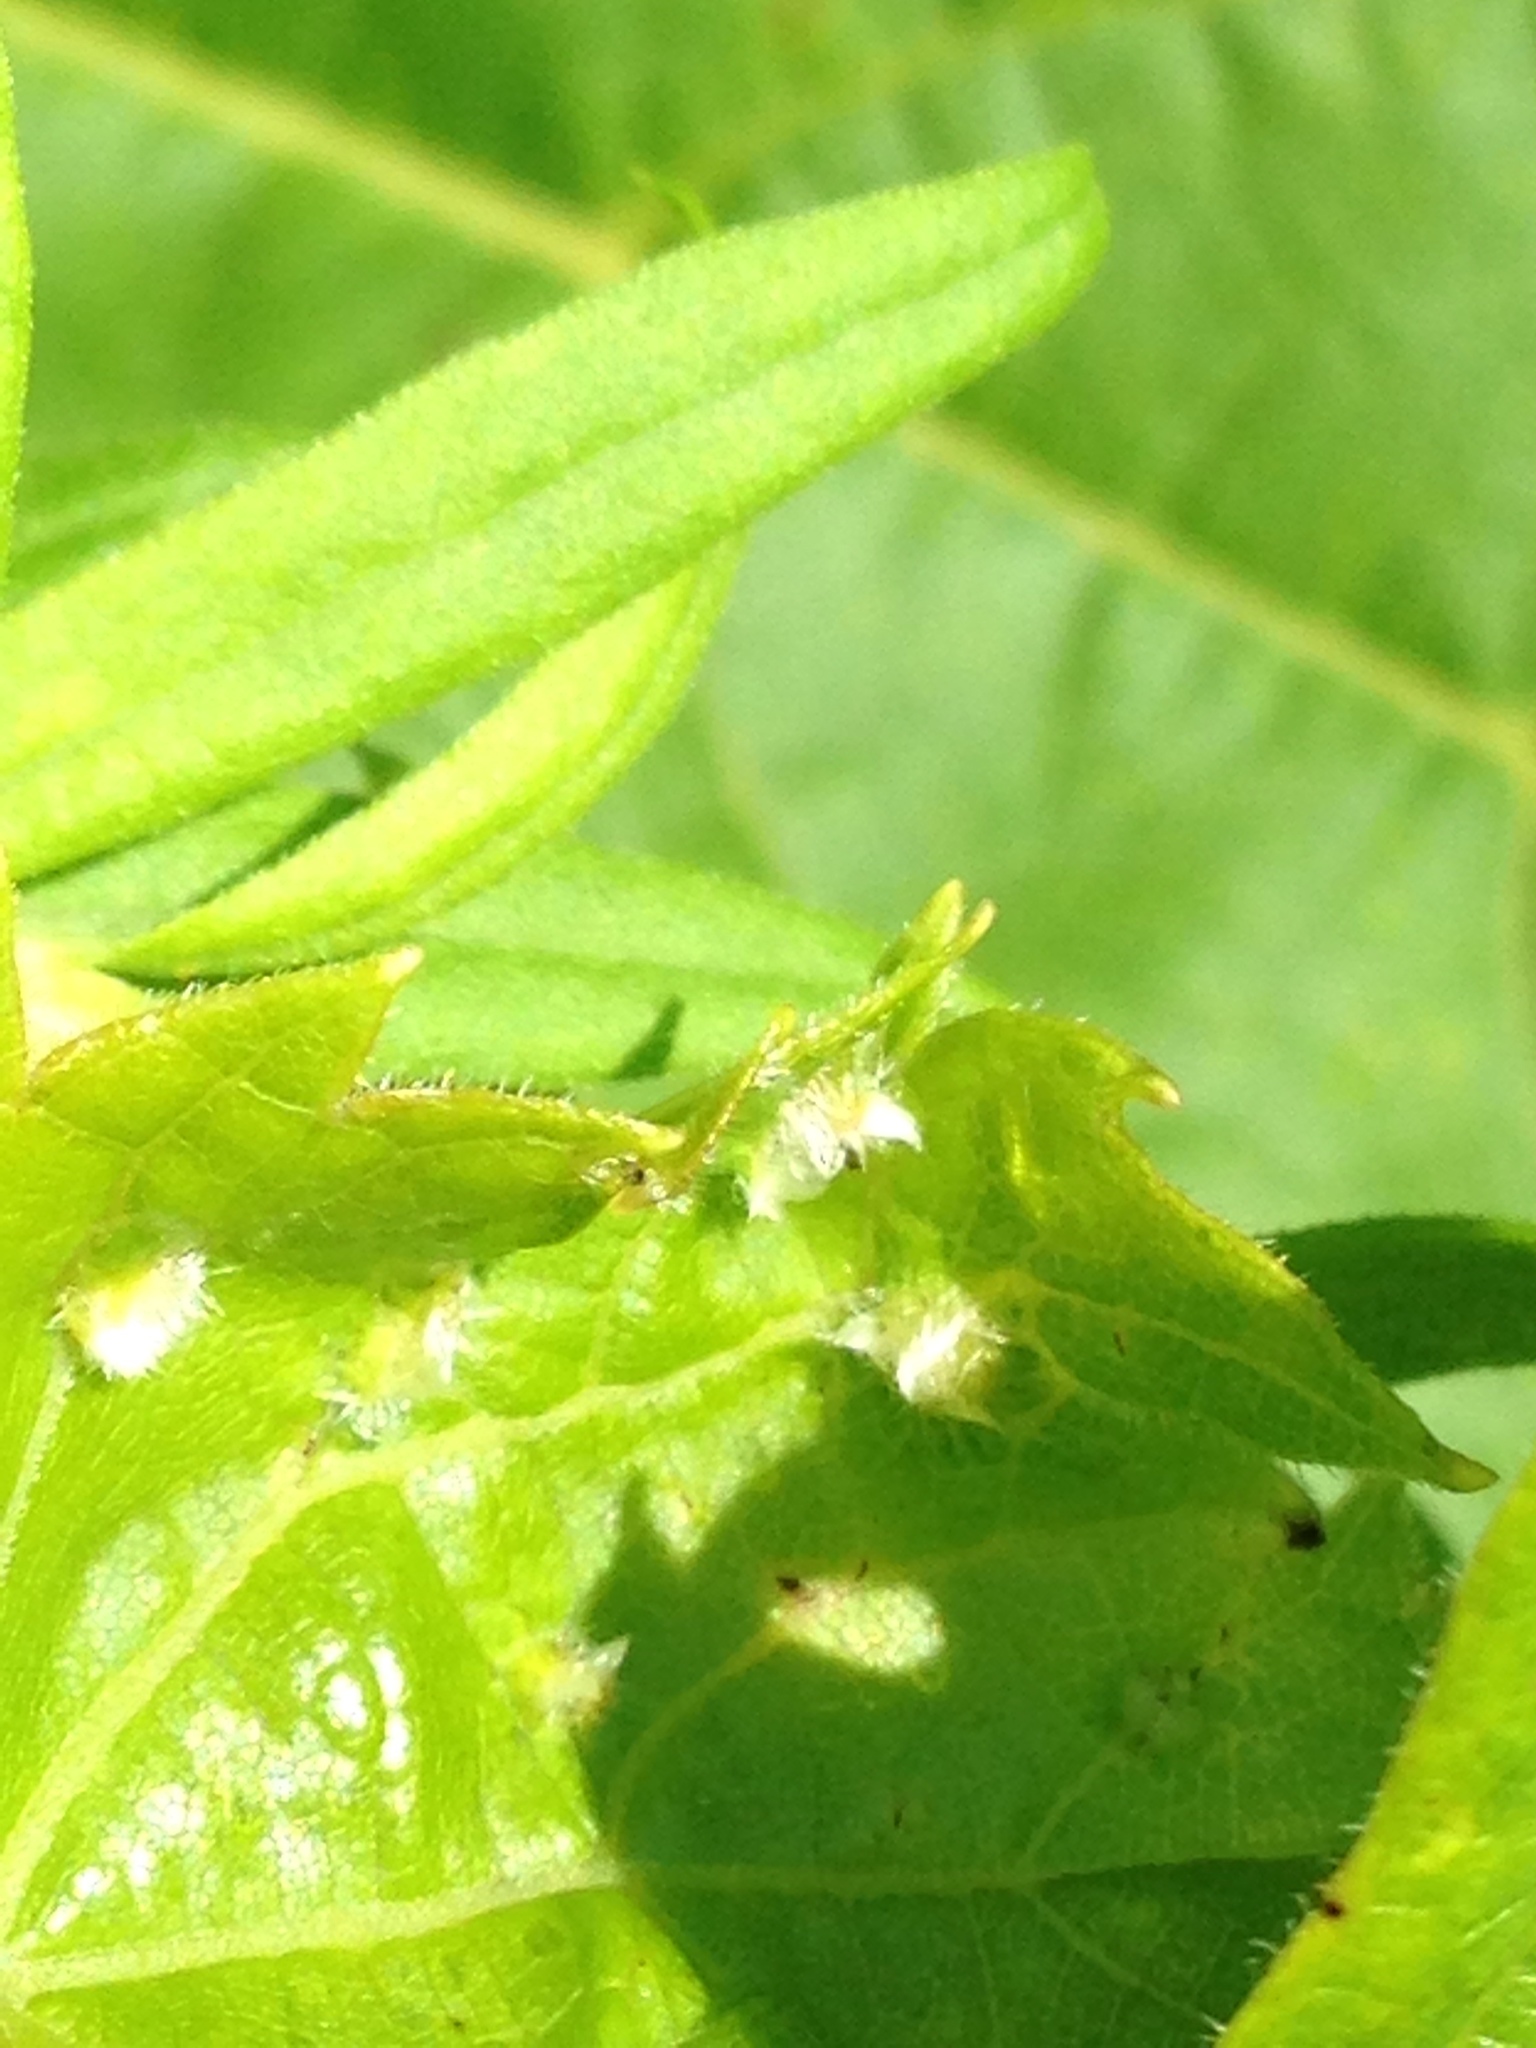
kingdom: Animalia
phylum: Arthropoda
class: Insecta
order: Hemiptera
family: Phylloxeridae
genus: Daktulosphaira
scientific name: Daktulosphaira vitifoliae
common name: Grape phylloxera
